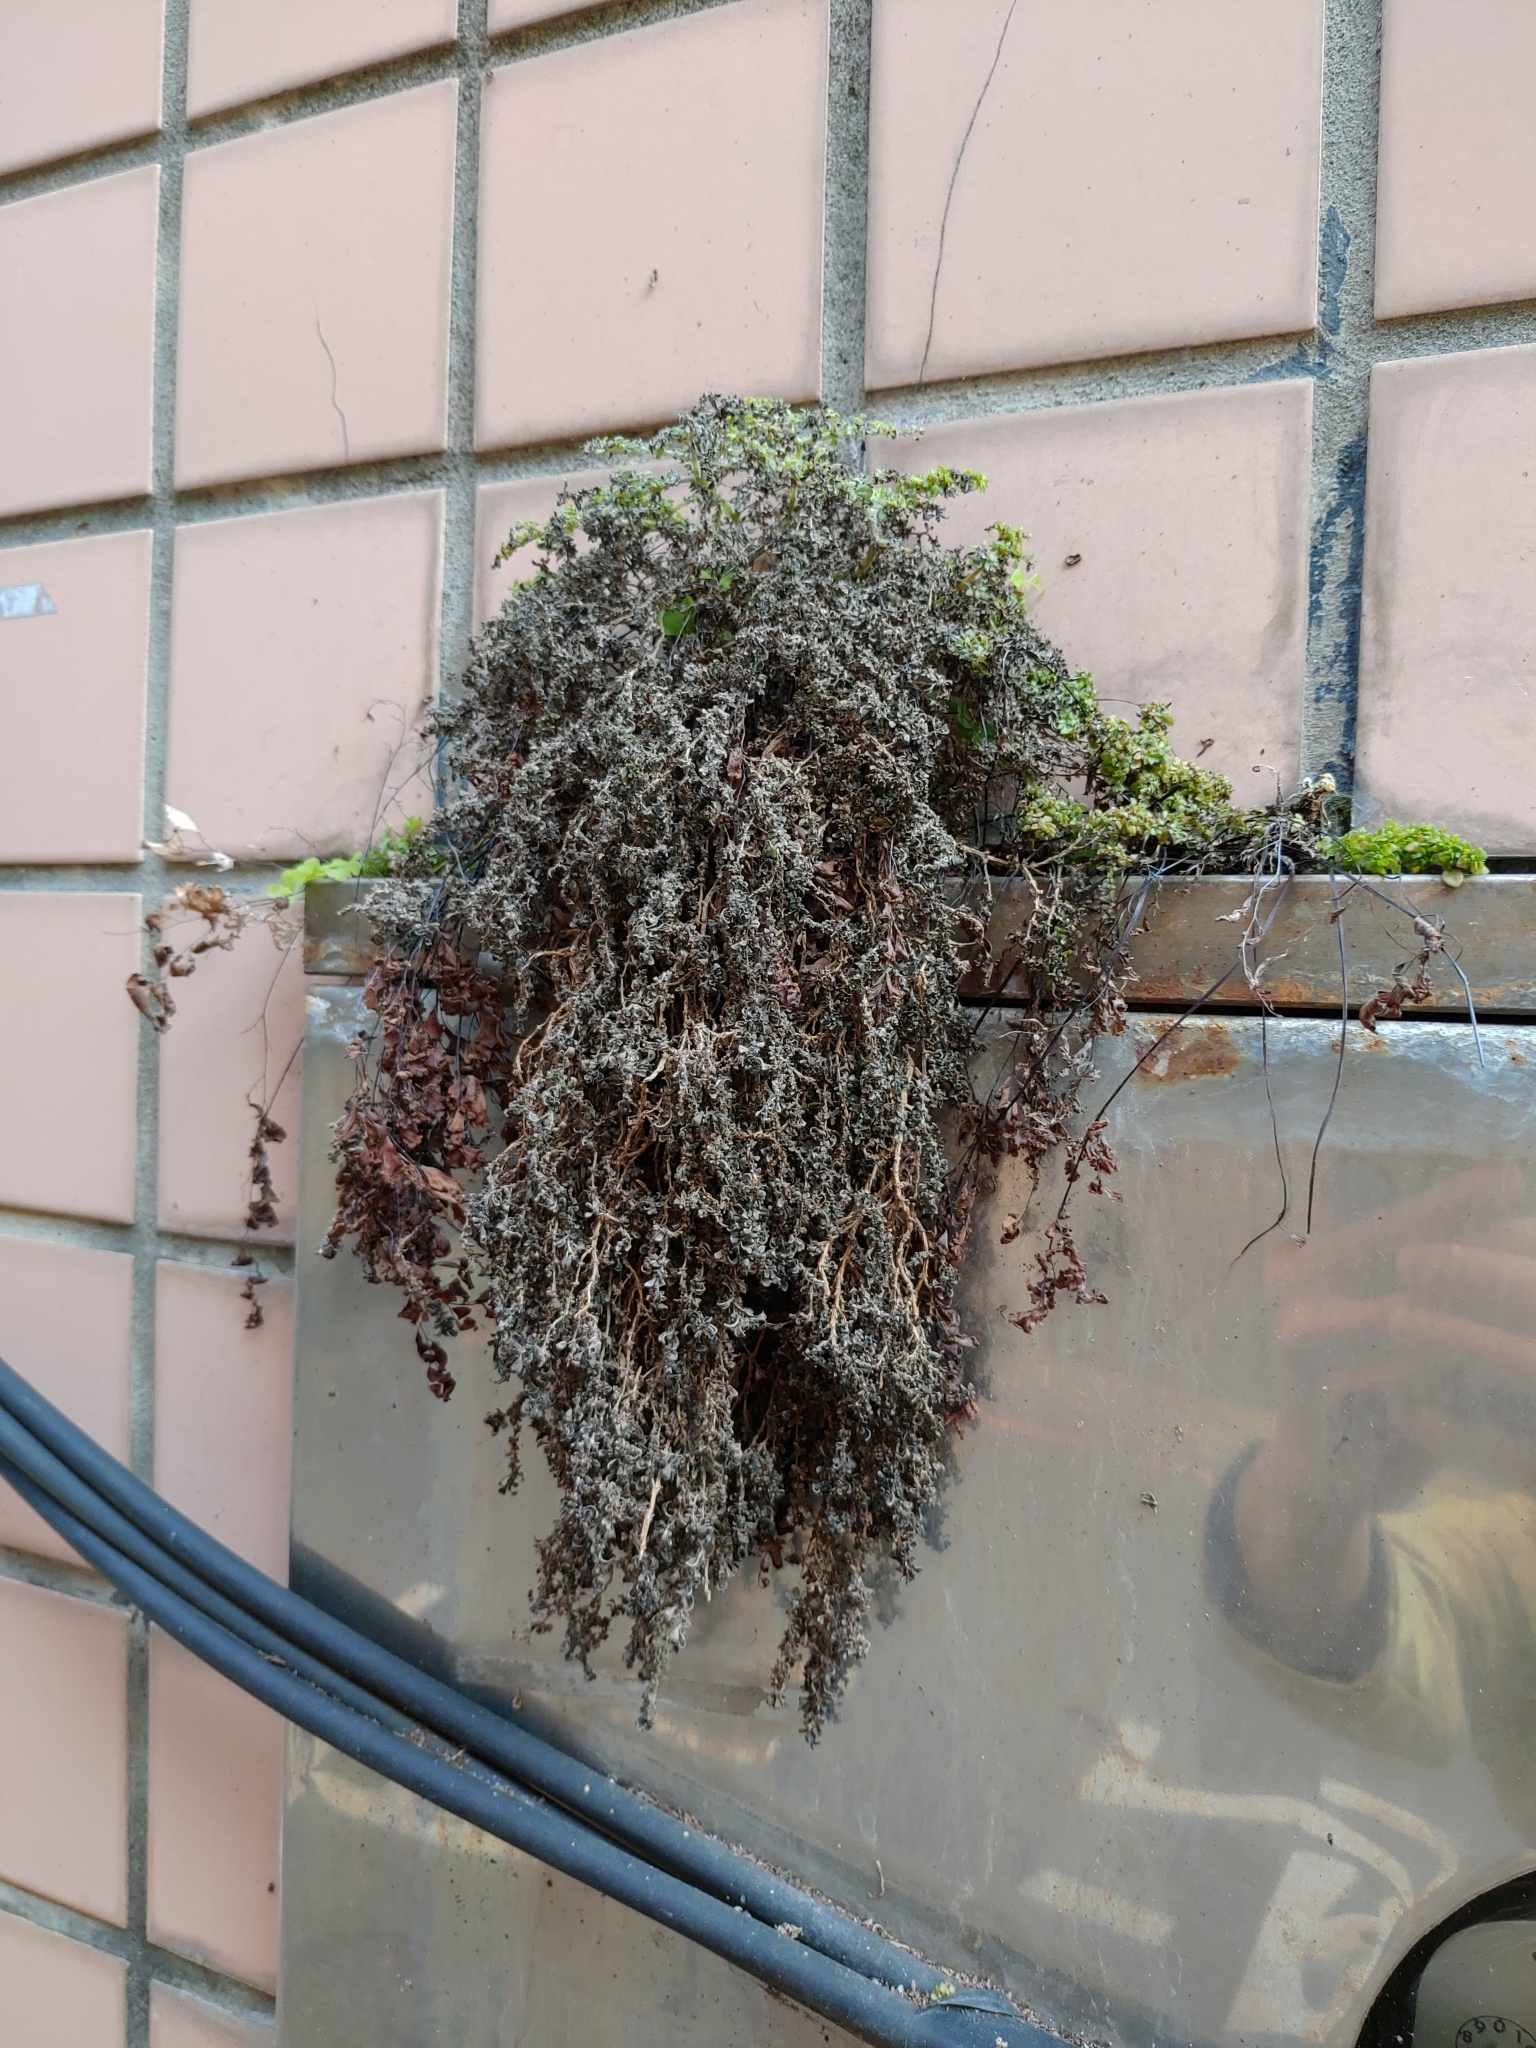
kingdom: Plantae
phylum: Tracheophyta
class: Magnoliopsida
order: Rosales
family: Urticaceae
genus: Pilea
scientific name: Pilea microphylla
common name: Artillery-plant
